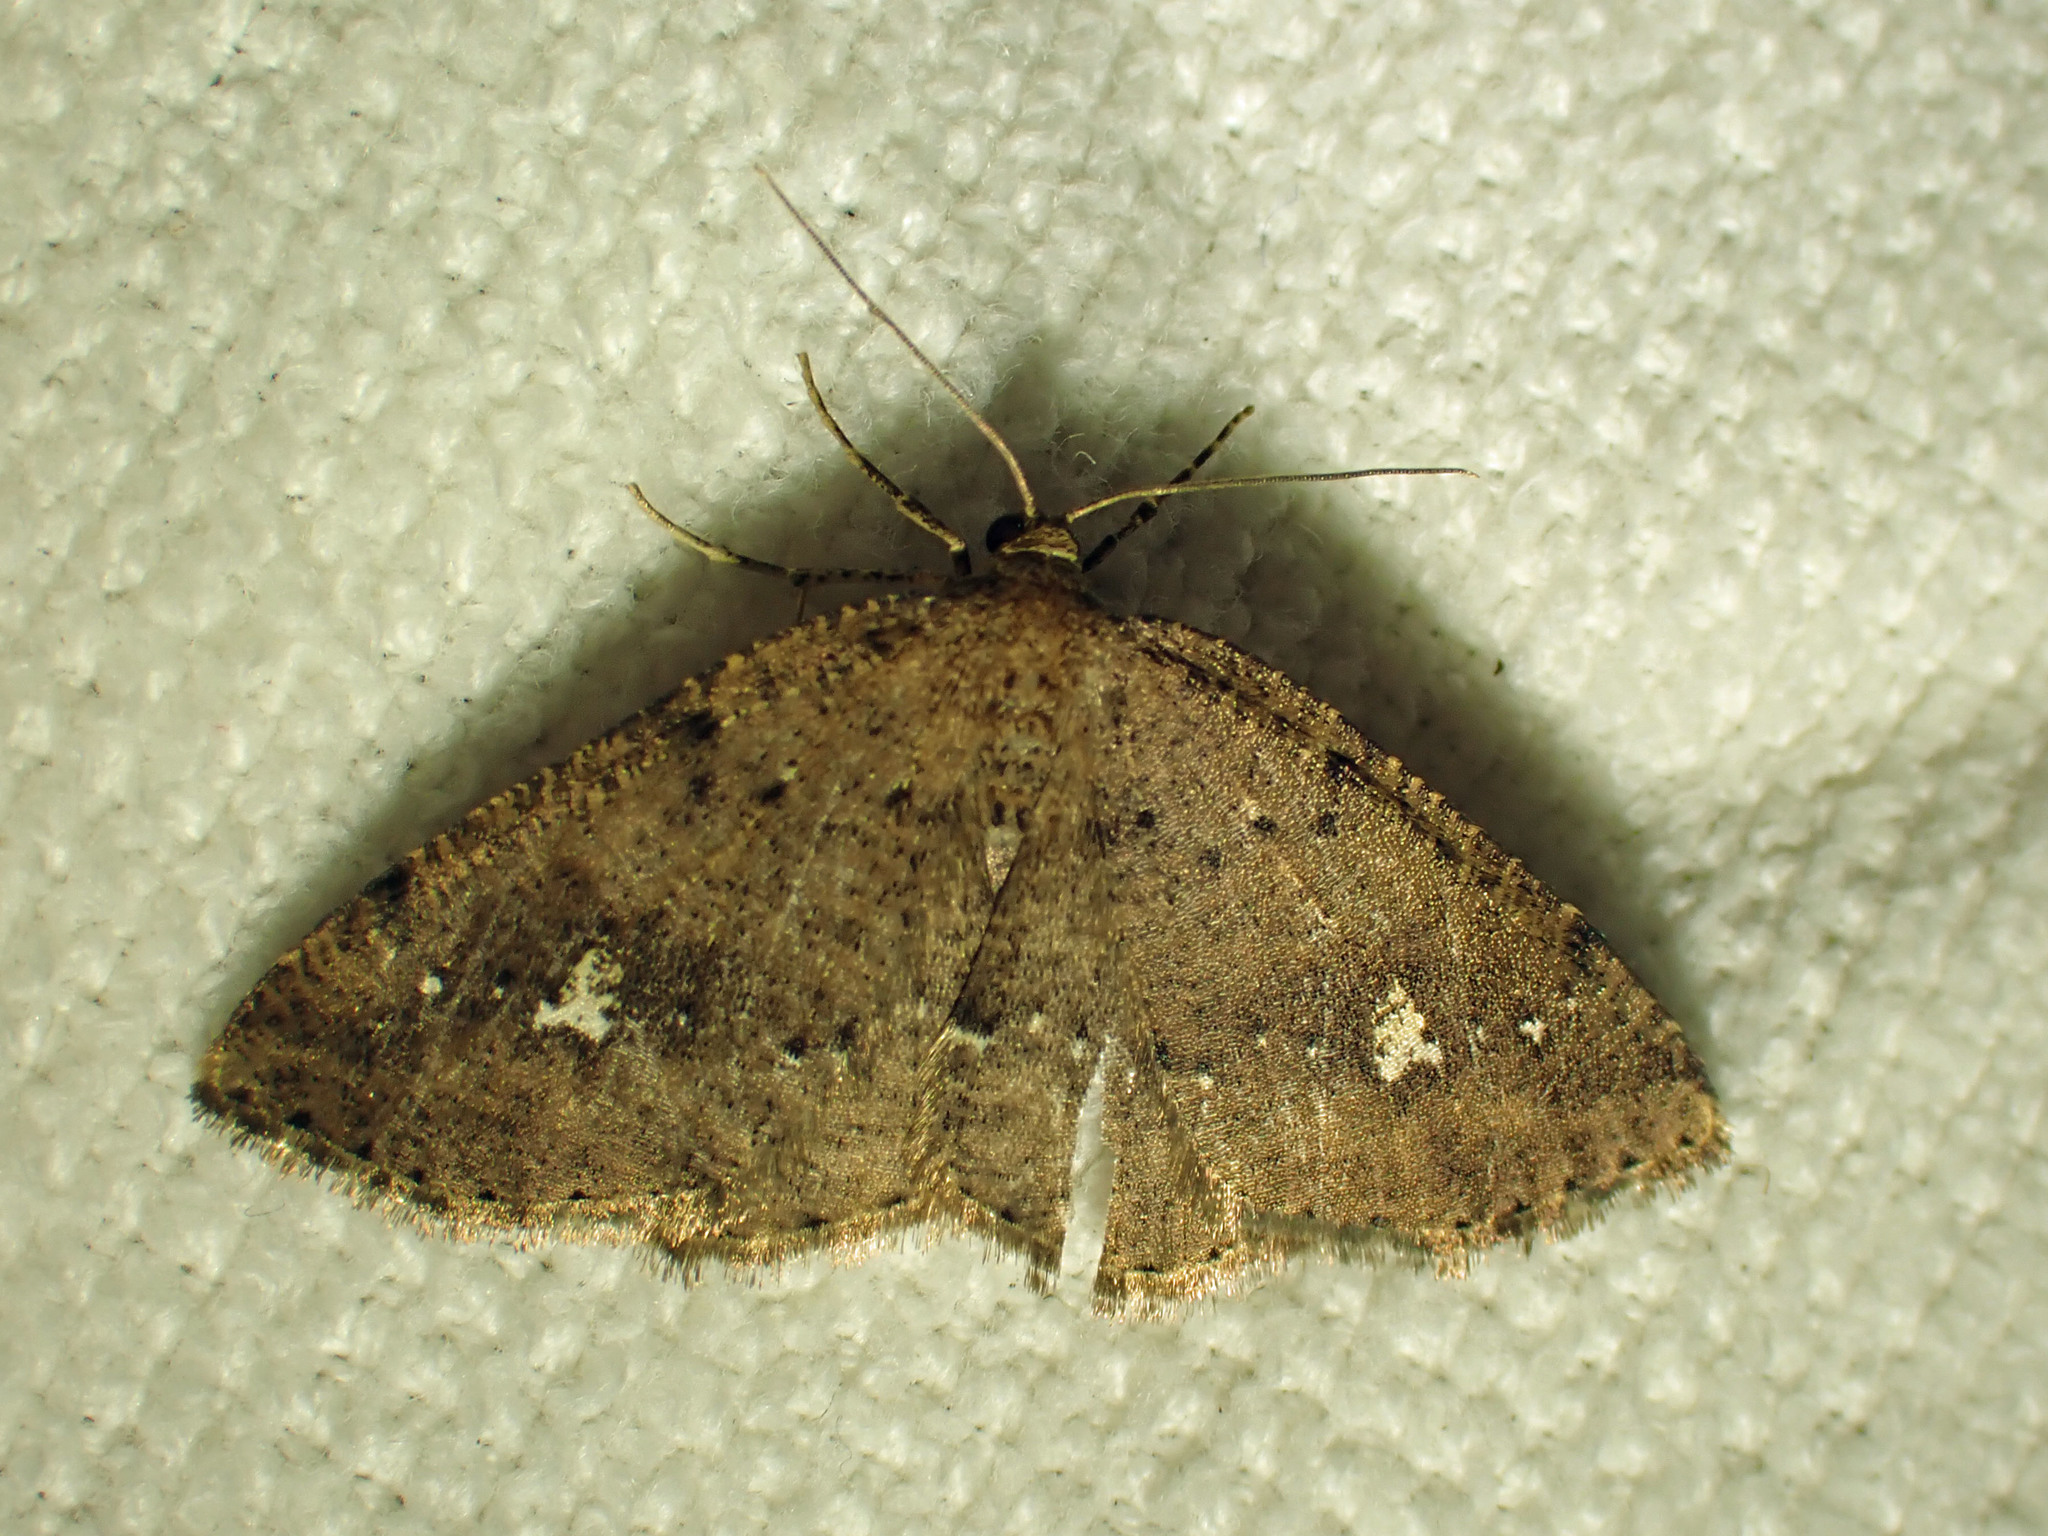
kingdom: Animalia
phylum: Arthropoda
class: Insecta
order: Lepidoptera
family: Geometridae
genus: Homochlodes
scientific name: Homochlodes fritillaria
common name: Pale homochlodes
